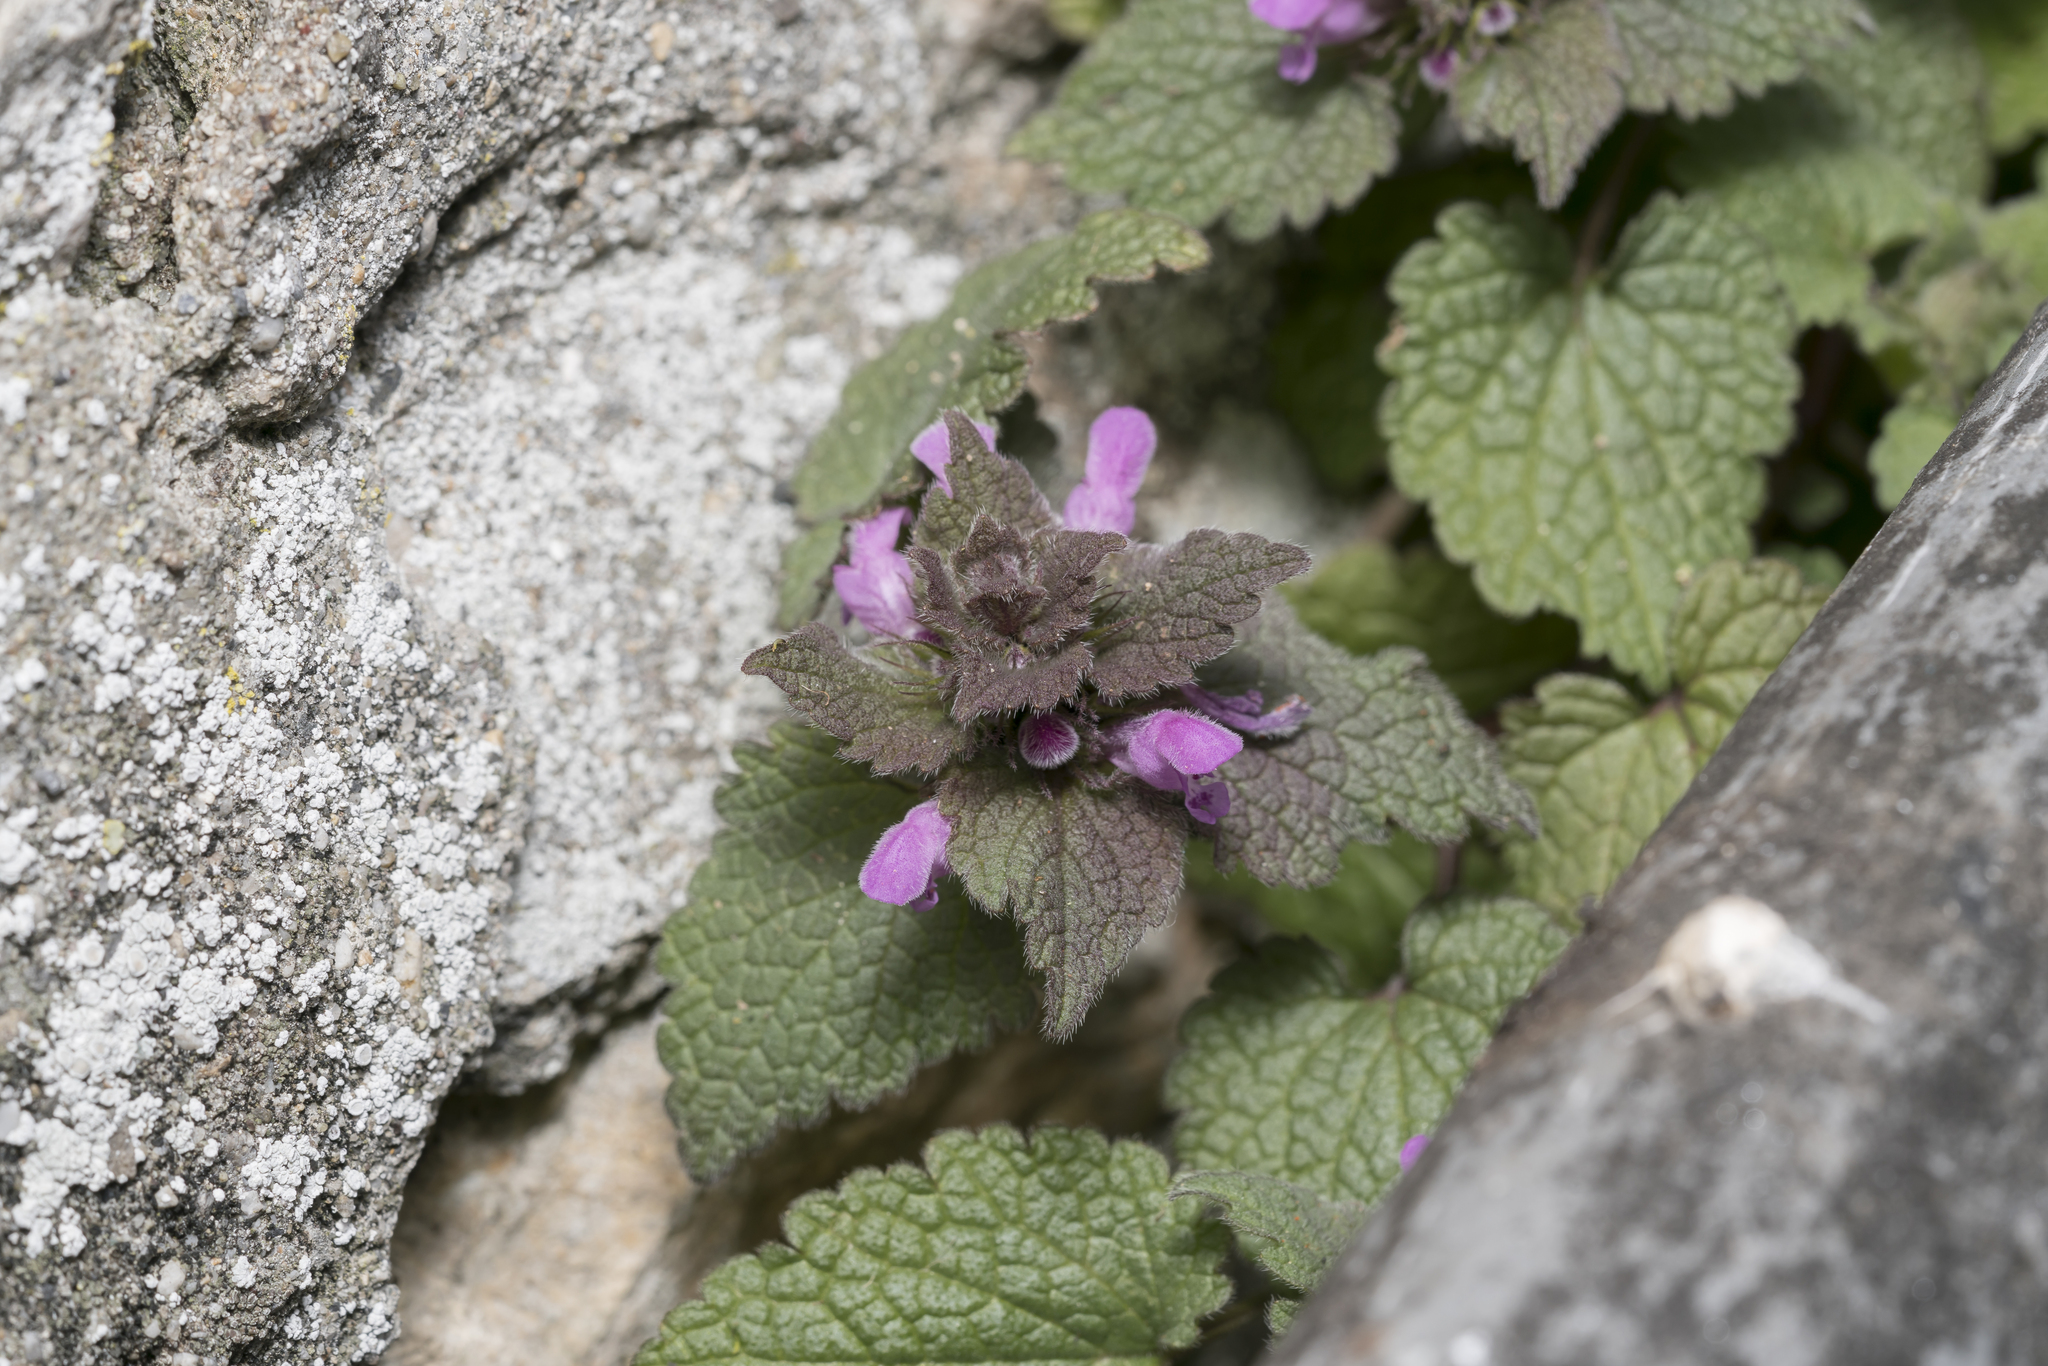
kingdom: Plantae
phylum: Tracheophyta
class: Magnoliopsida
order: Lamiales
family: Lamiaceae
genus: Lamium
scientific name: Lamium purpureum
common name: Red dead-nettle
